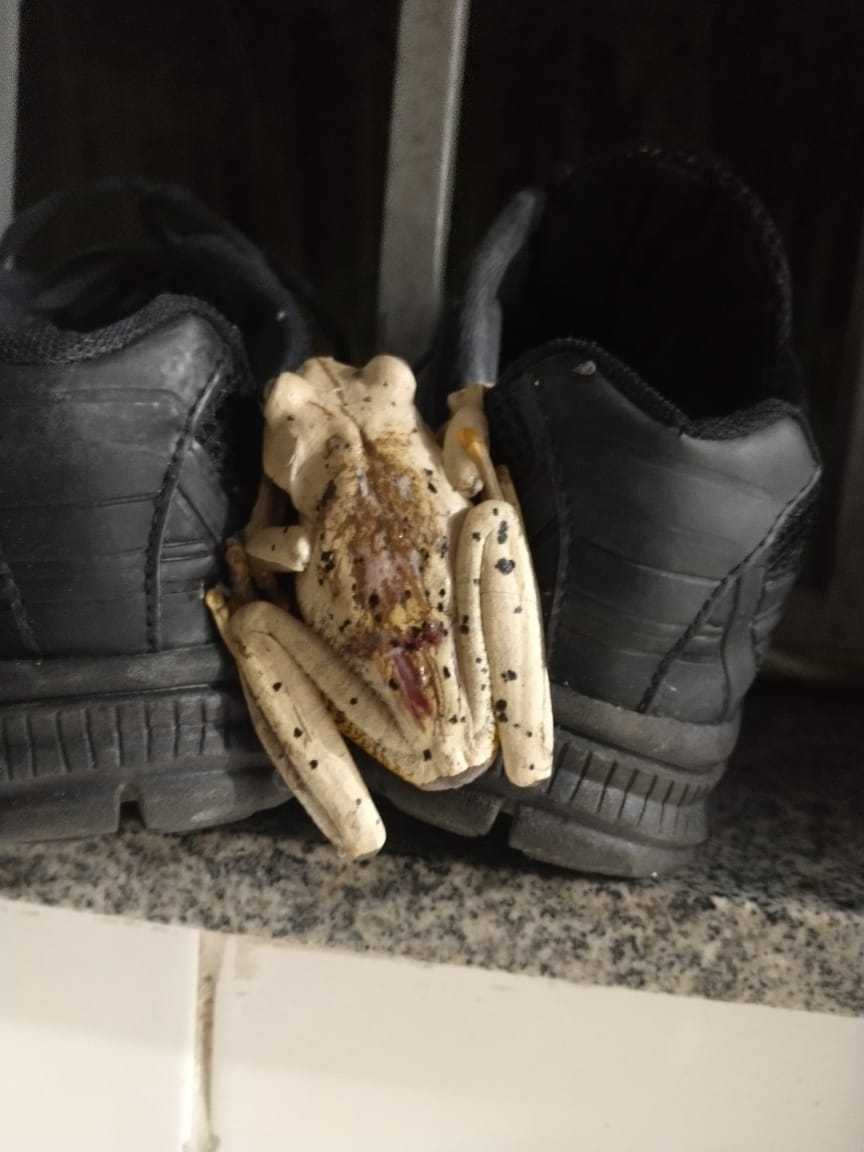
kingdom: Animalia
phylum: Chordata
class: Amphibia
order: Anura
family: Hylidae
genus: Boana
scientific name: Boana faber
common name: Blacksmith tree frog
